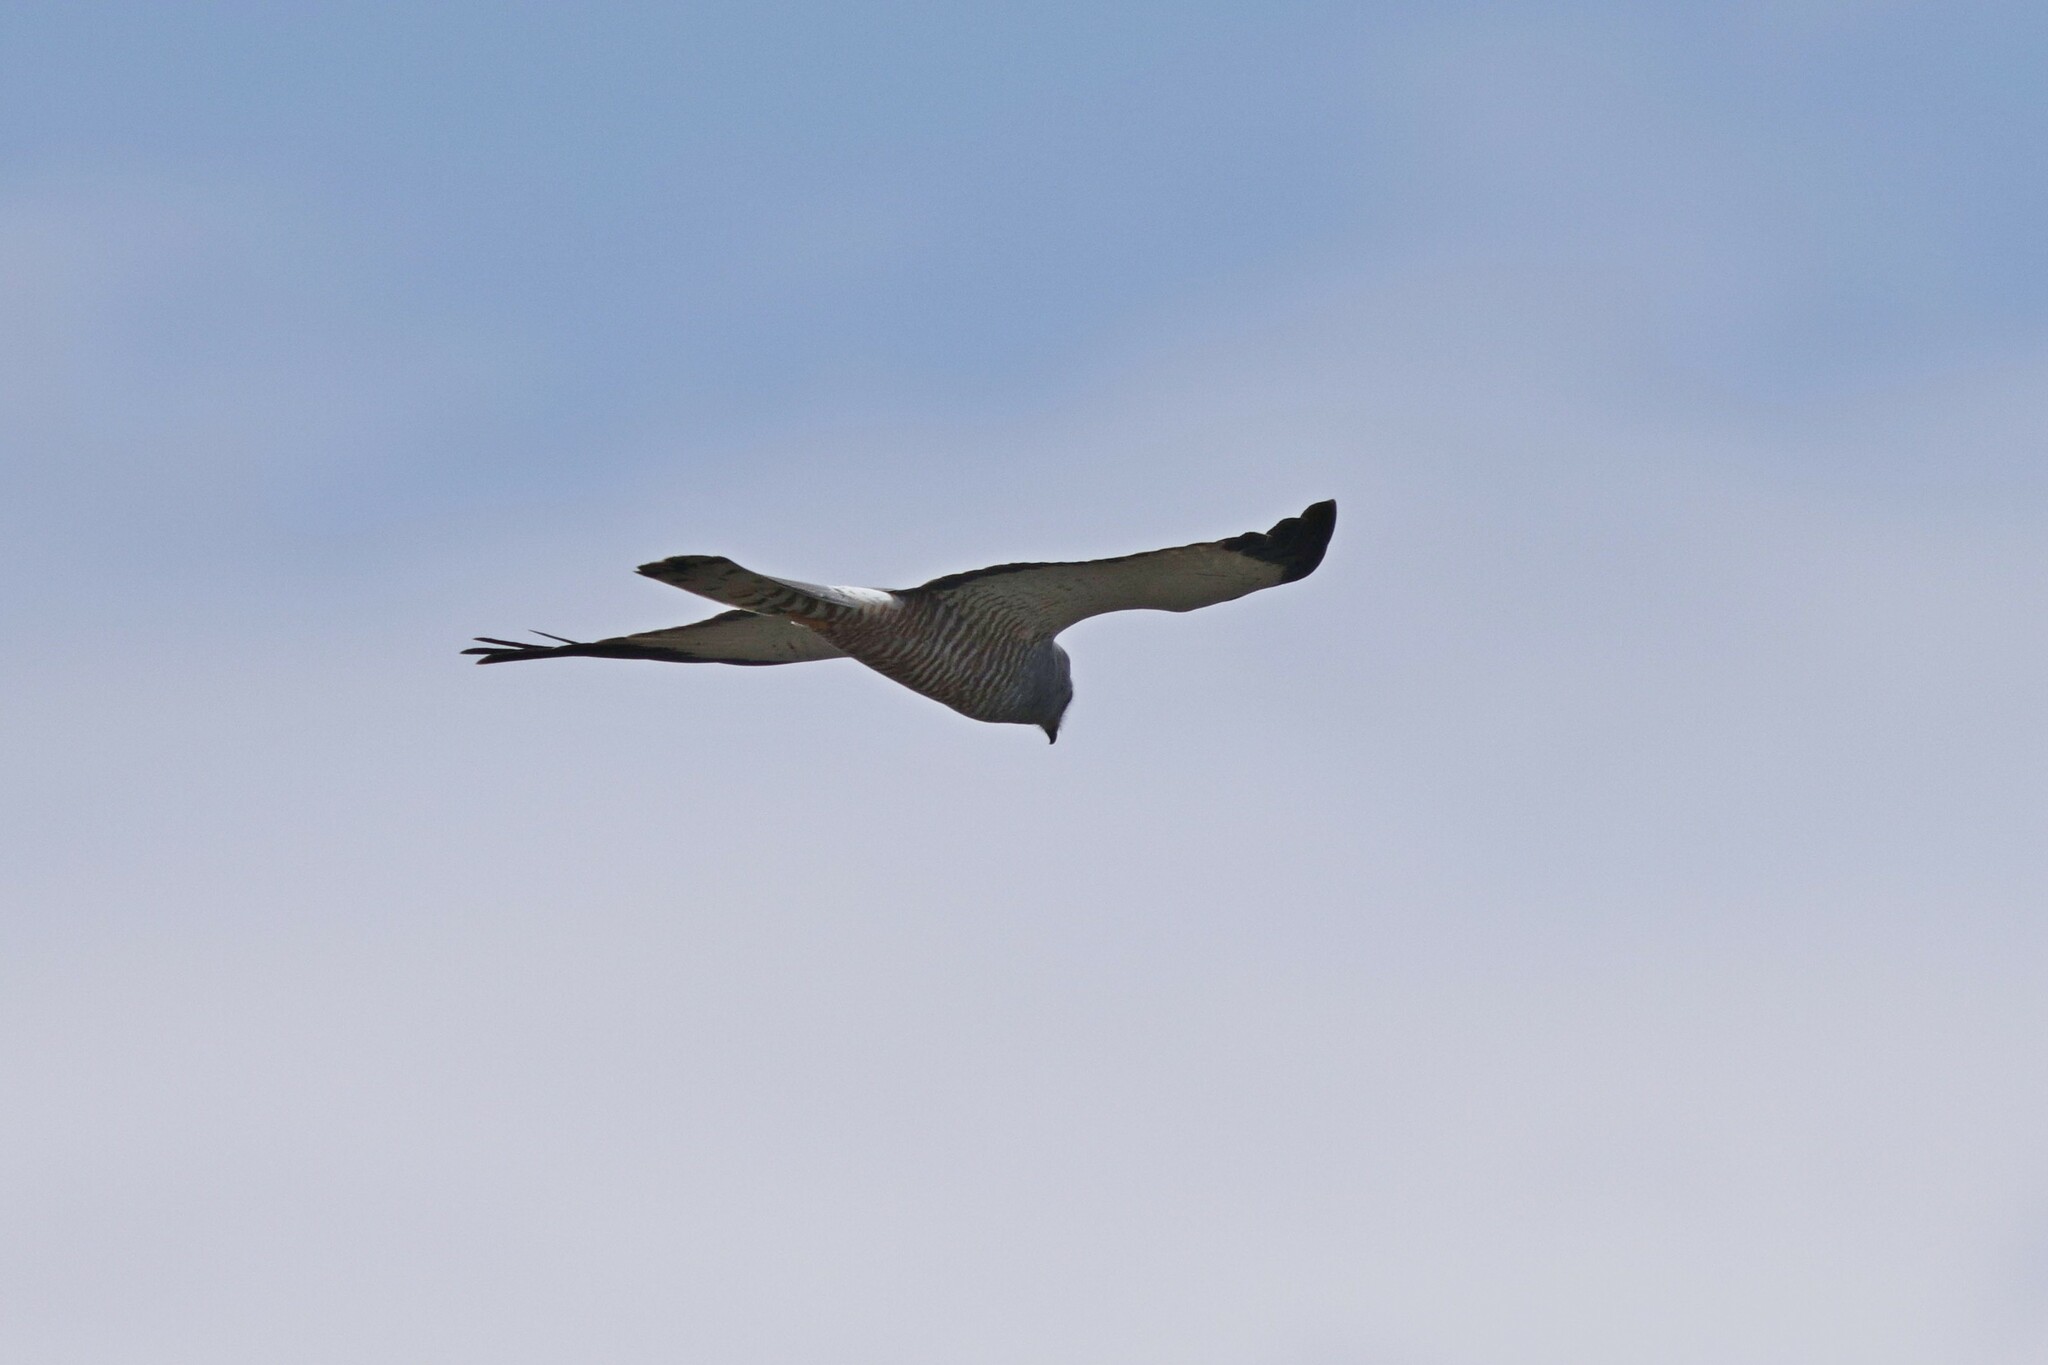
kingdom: Animalia
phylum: Chordata
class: Aves
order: Accipitriformes
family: Accipitridae
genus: Circus
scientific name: Circus cinereus
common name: Cinereous harrier
